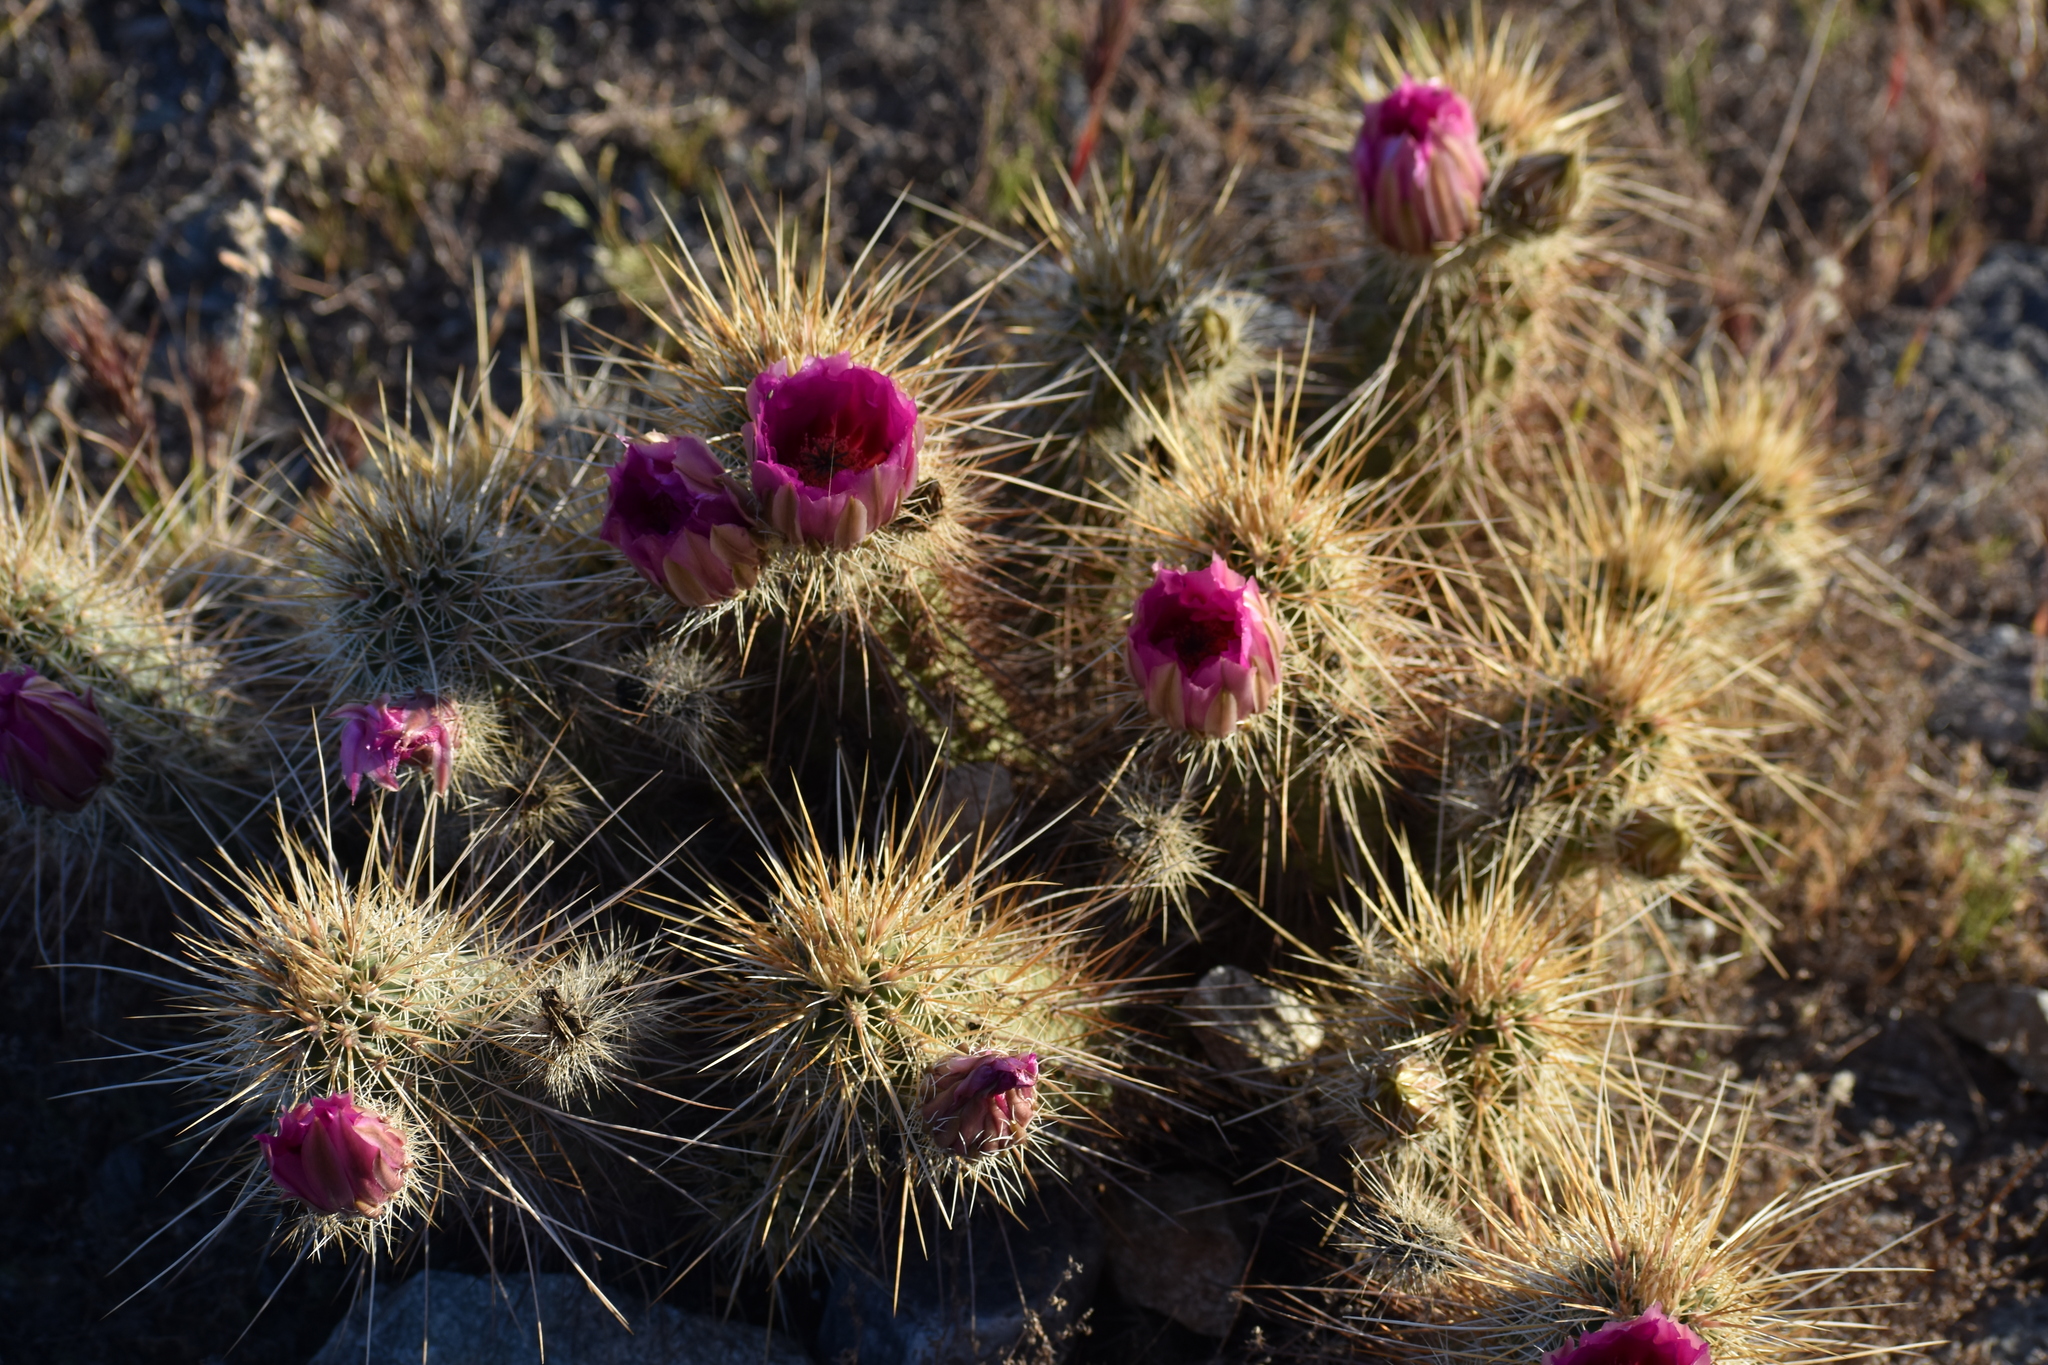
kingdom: Plantae
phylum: Tracheophyta
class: Magnoliopsida
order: Caryophyllales
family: Cactaceae
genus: Echinocereus
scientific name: Echinocereus engelmannii
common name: Engelmann's hedgehog cactus
